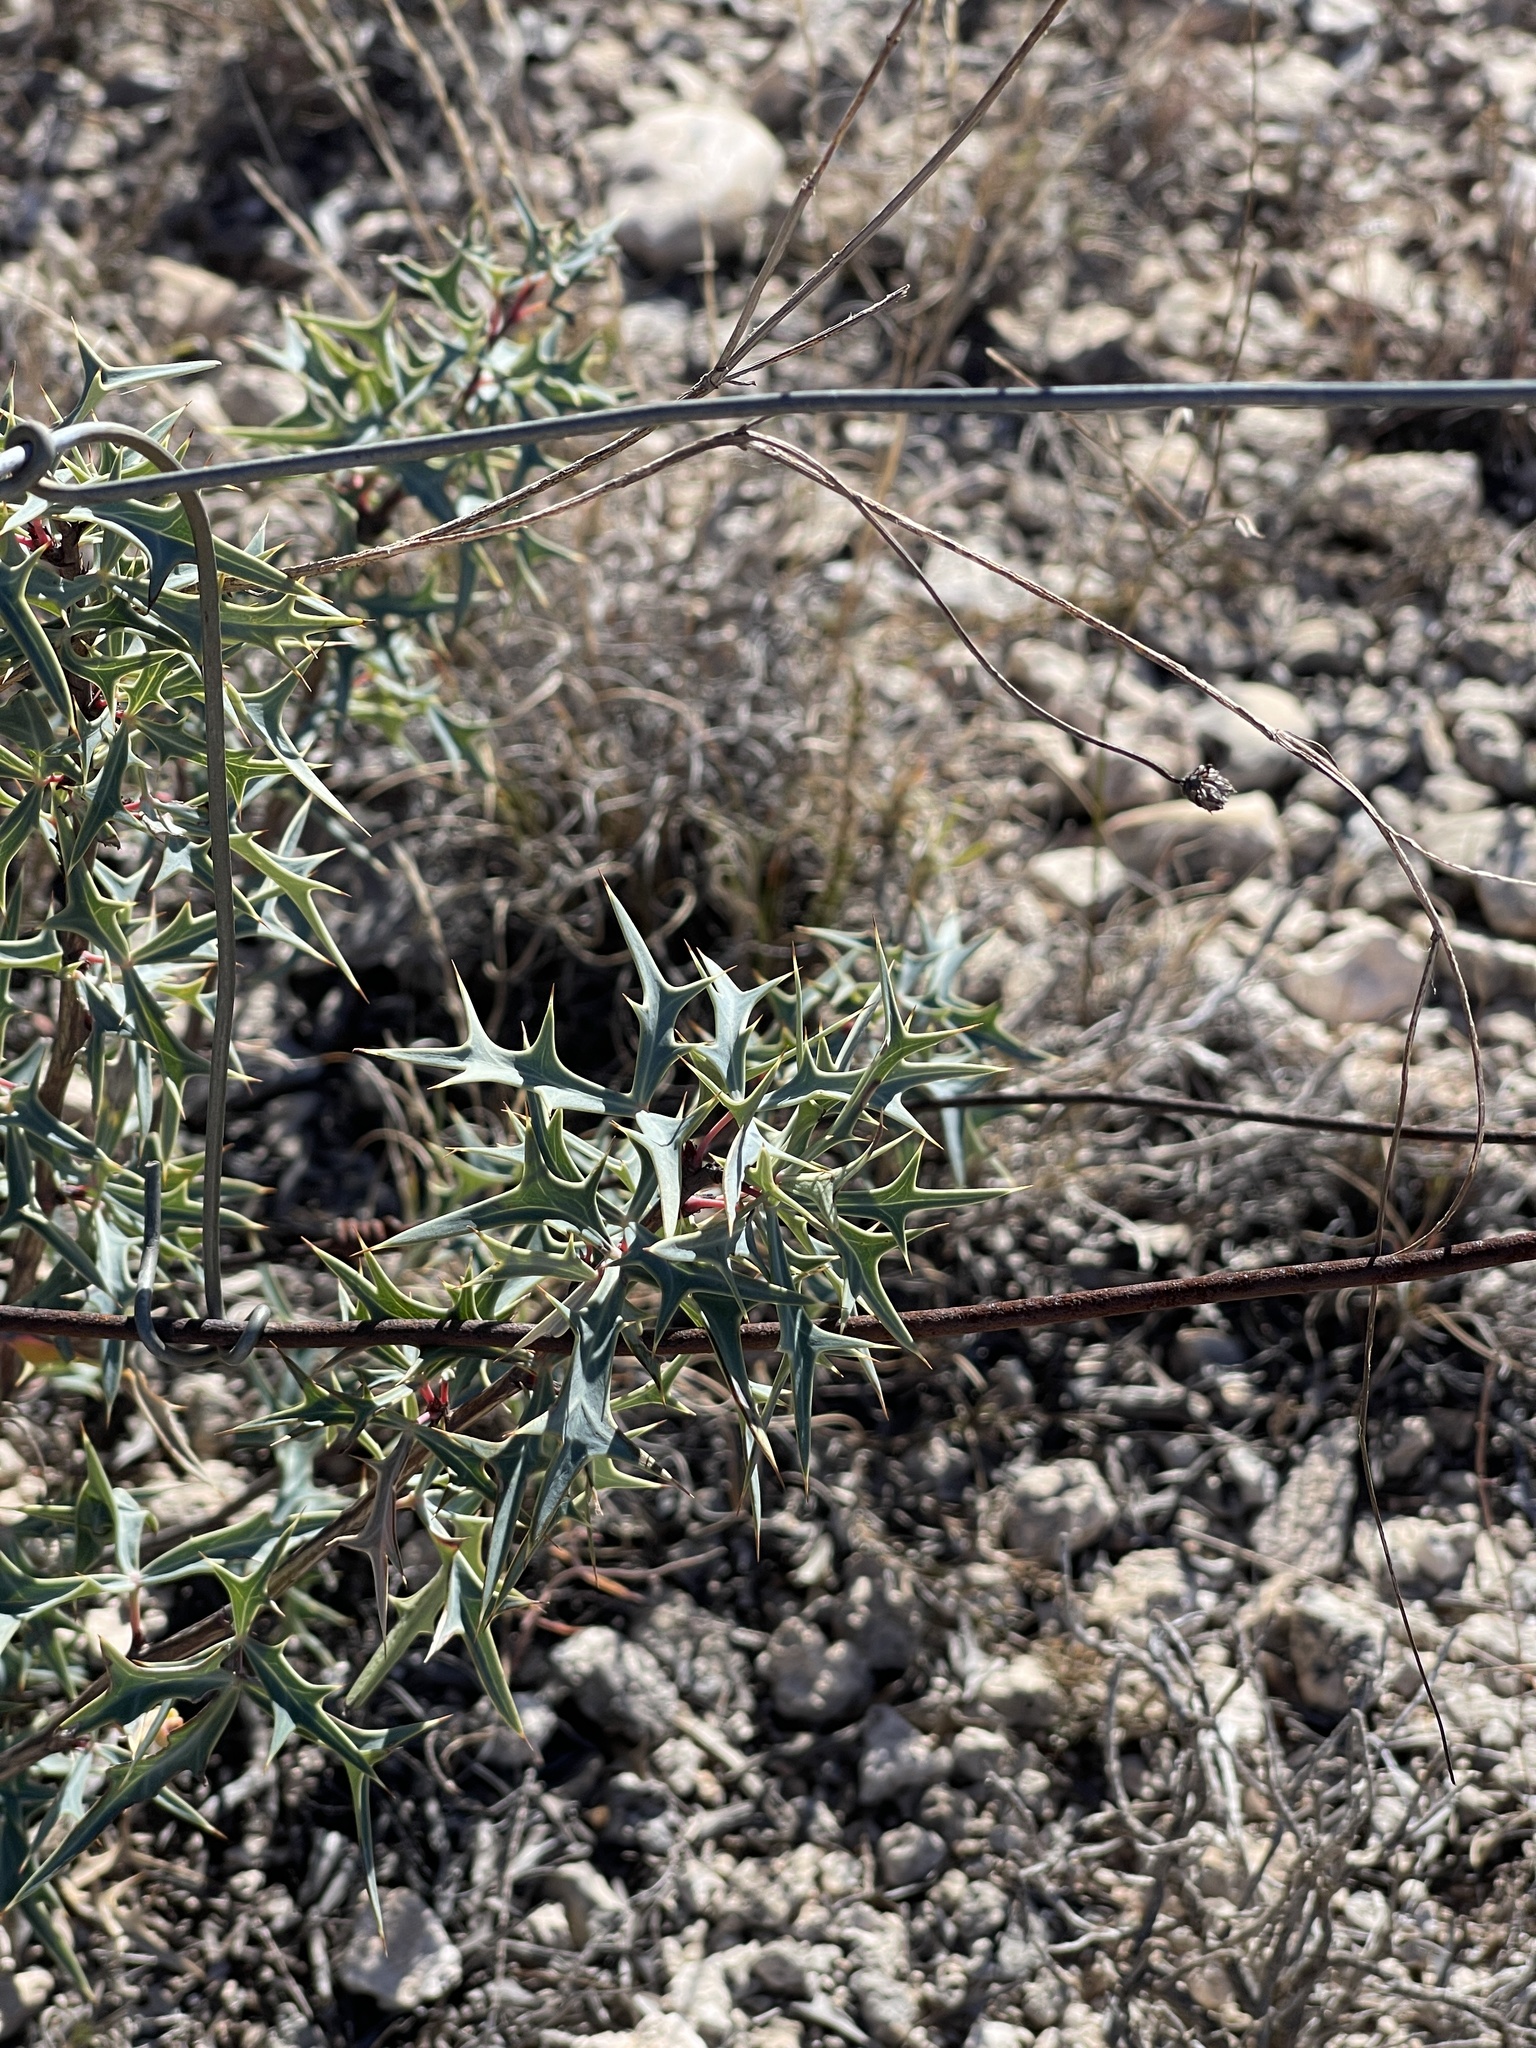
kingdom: Plantae
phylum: Tracheophyta
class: Magnoliopsida
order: Ranunculales
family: Berberidaceae
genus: Alloberberis
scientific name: Alloberberis trifoliolata
